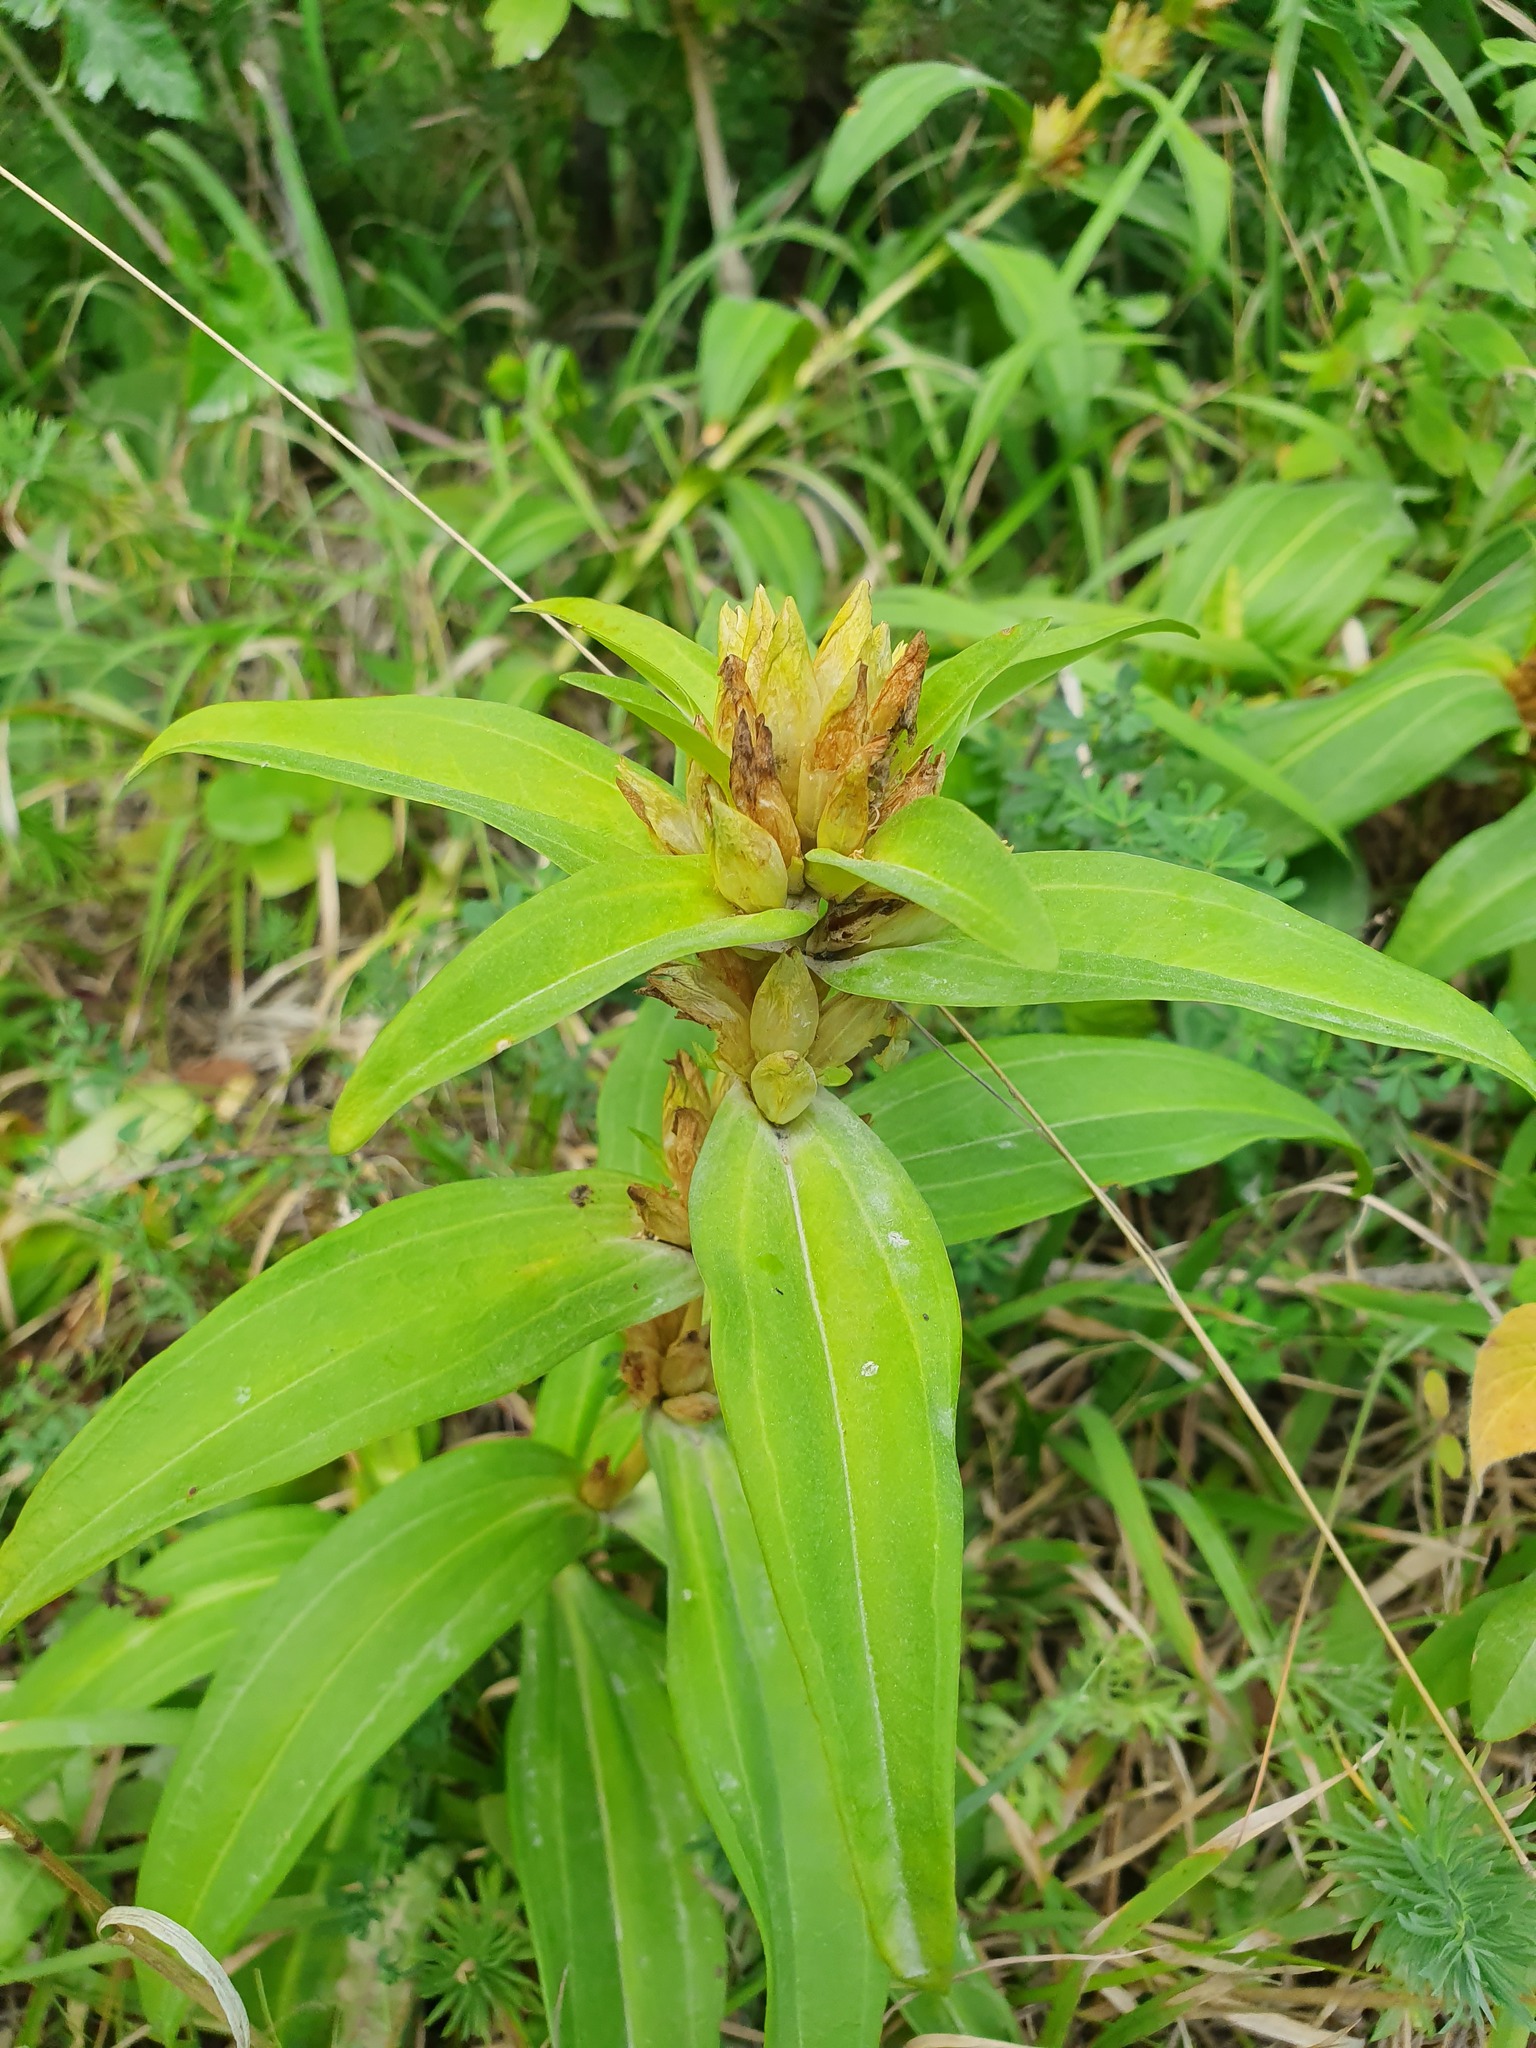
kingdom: Plantae
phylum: Tracheophyta
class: Magnoliopsida
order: Gentianales
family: Gentianaceae
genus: Gentiana
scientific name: Gentiana cruciata
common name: Cross gentian
